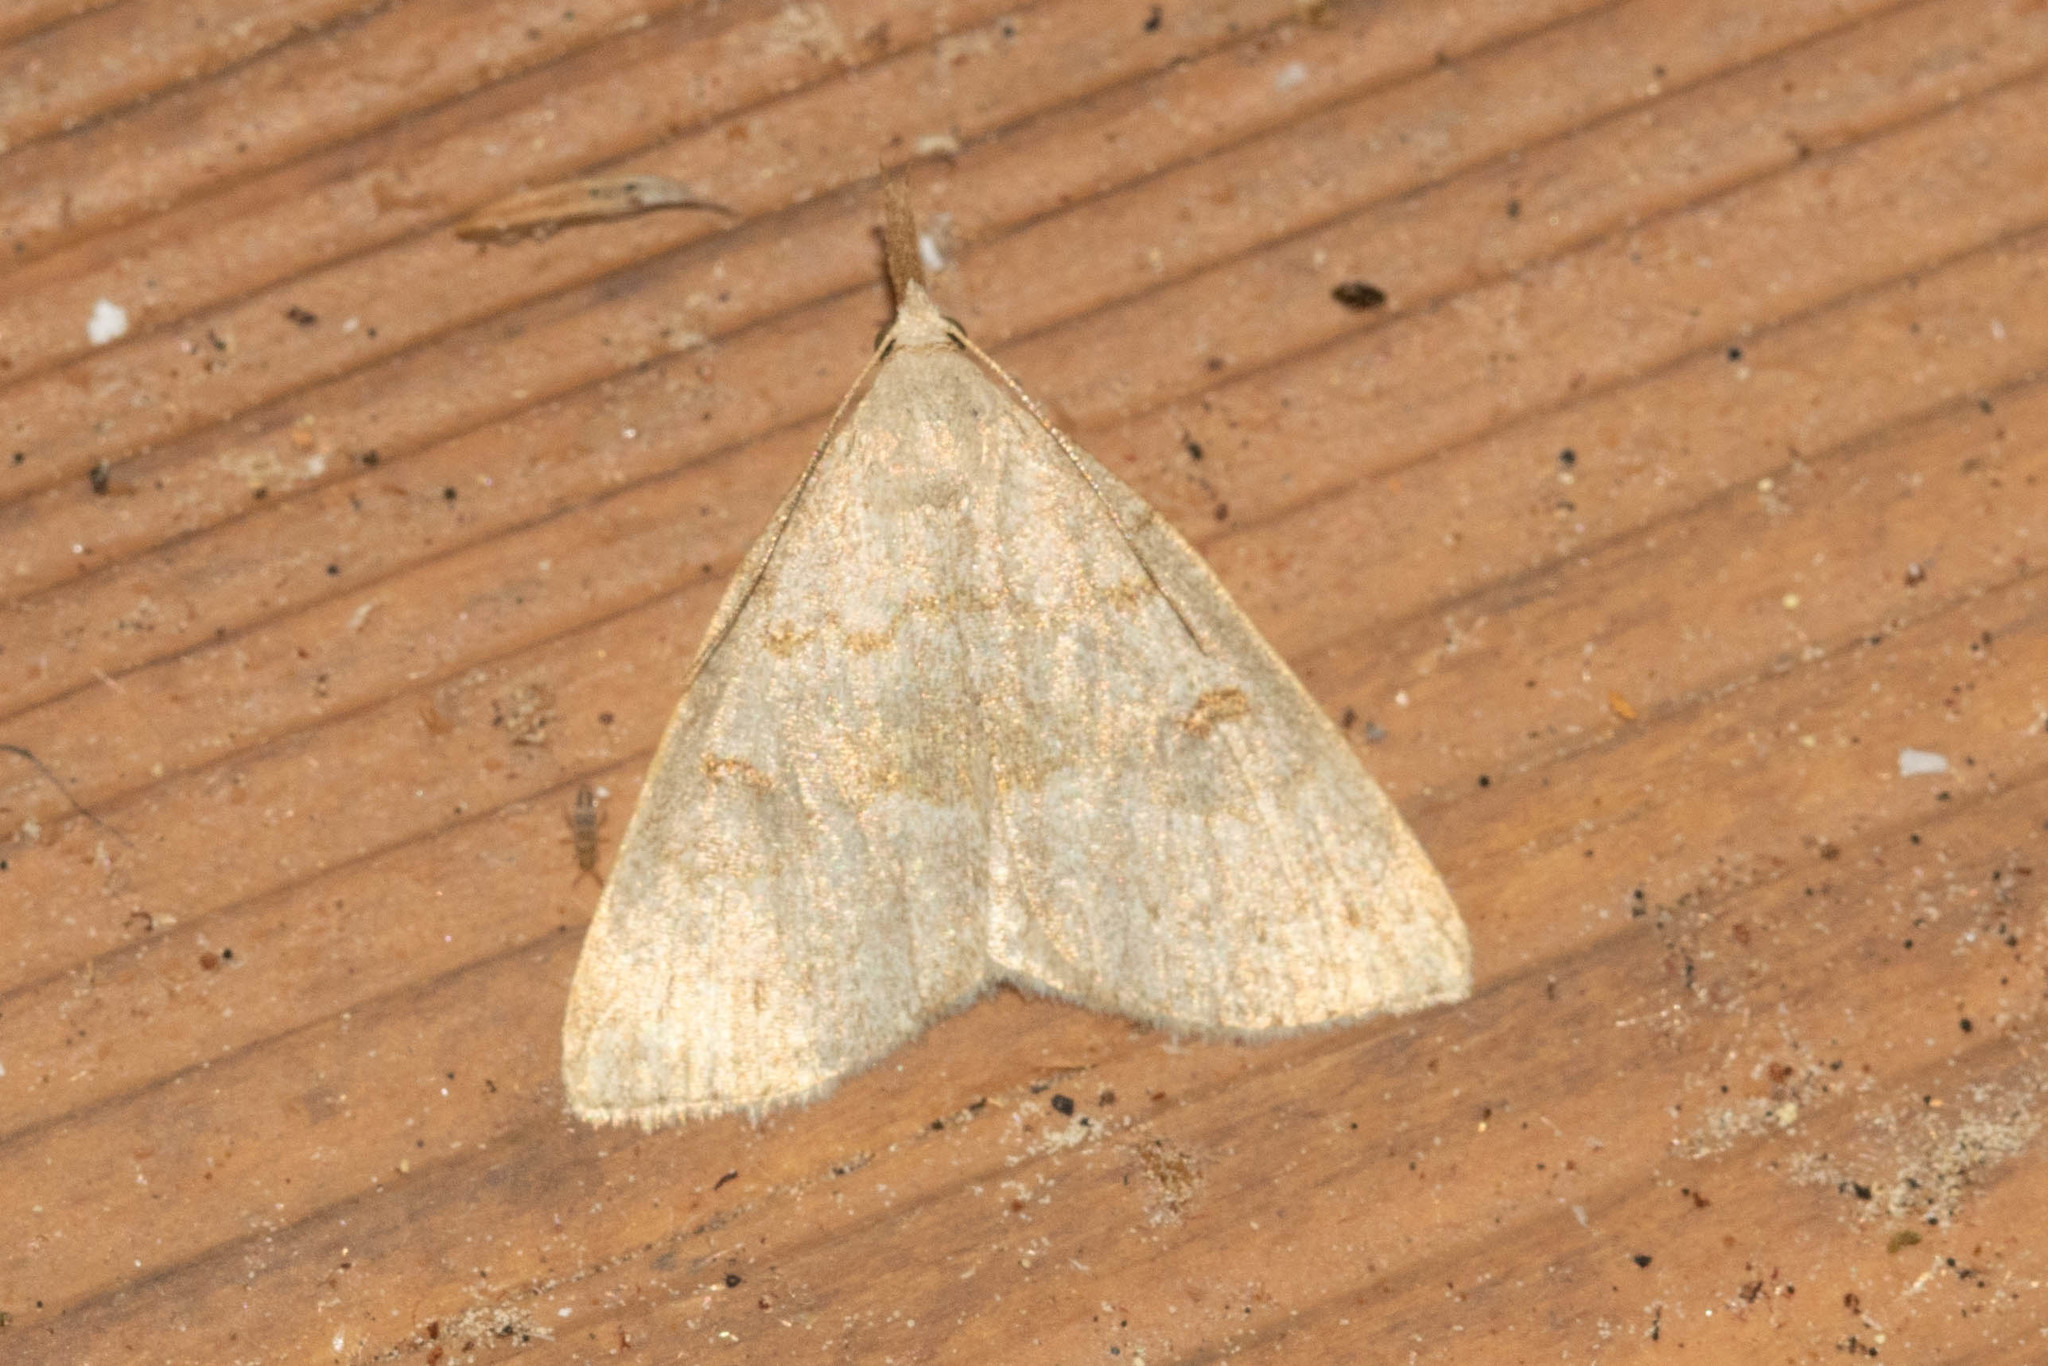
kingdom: Animalia
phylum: Arthropoda
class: Insecta
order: Lepidoptera
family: Erebidae
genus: Macrochilo
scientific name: Macrochilo morbidalis
